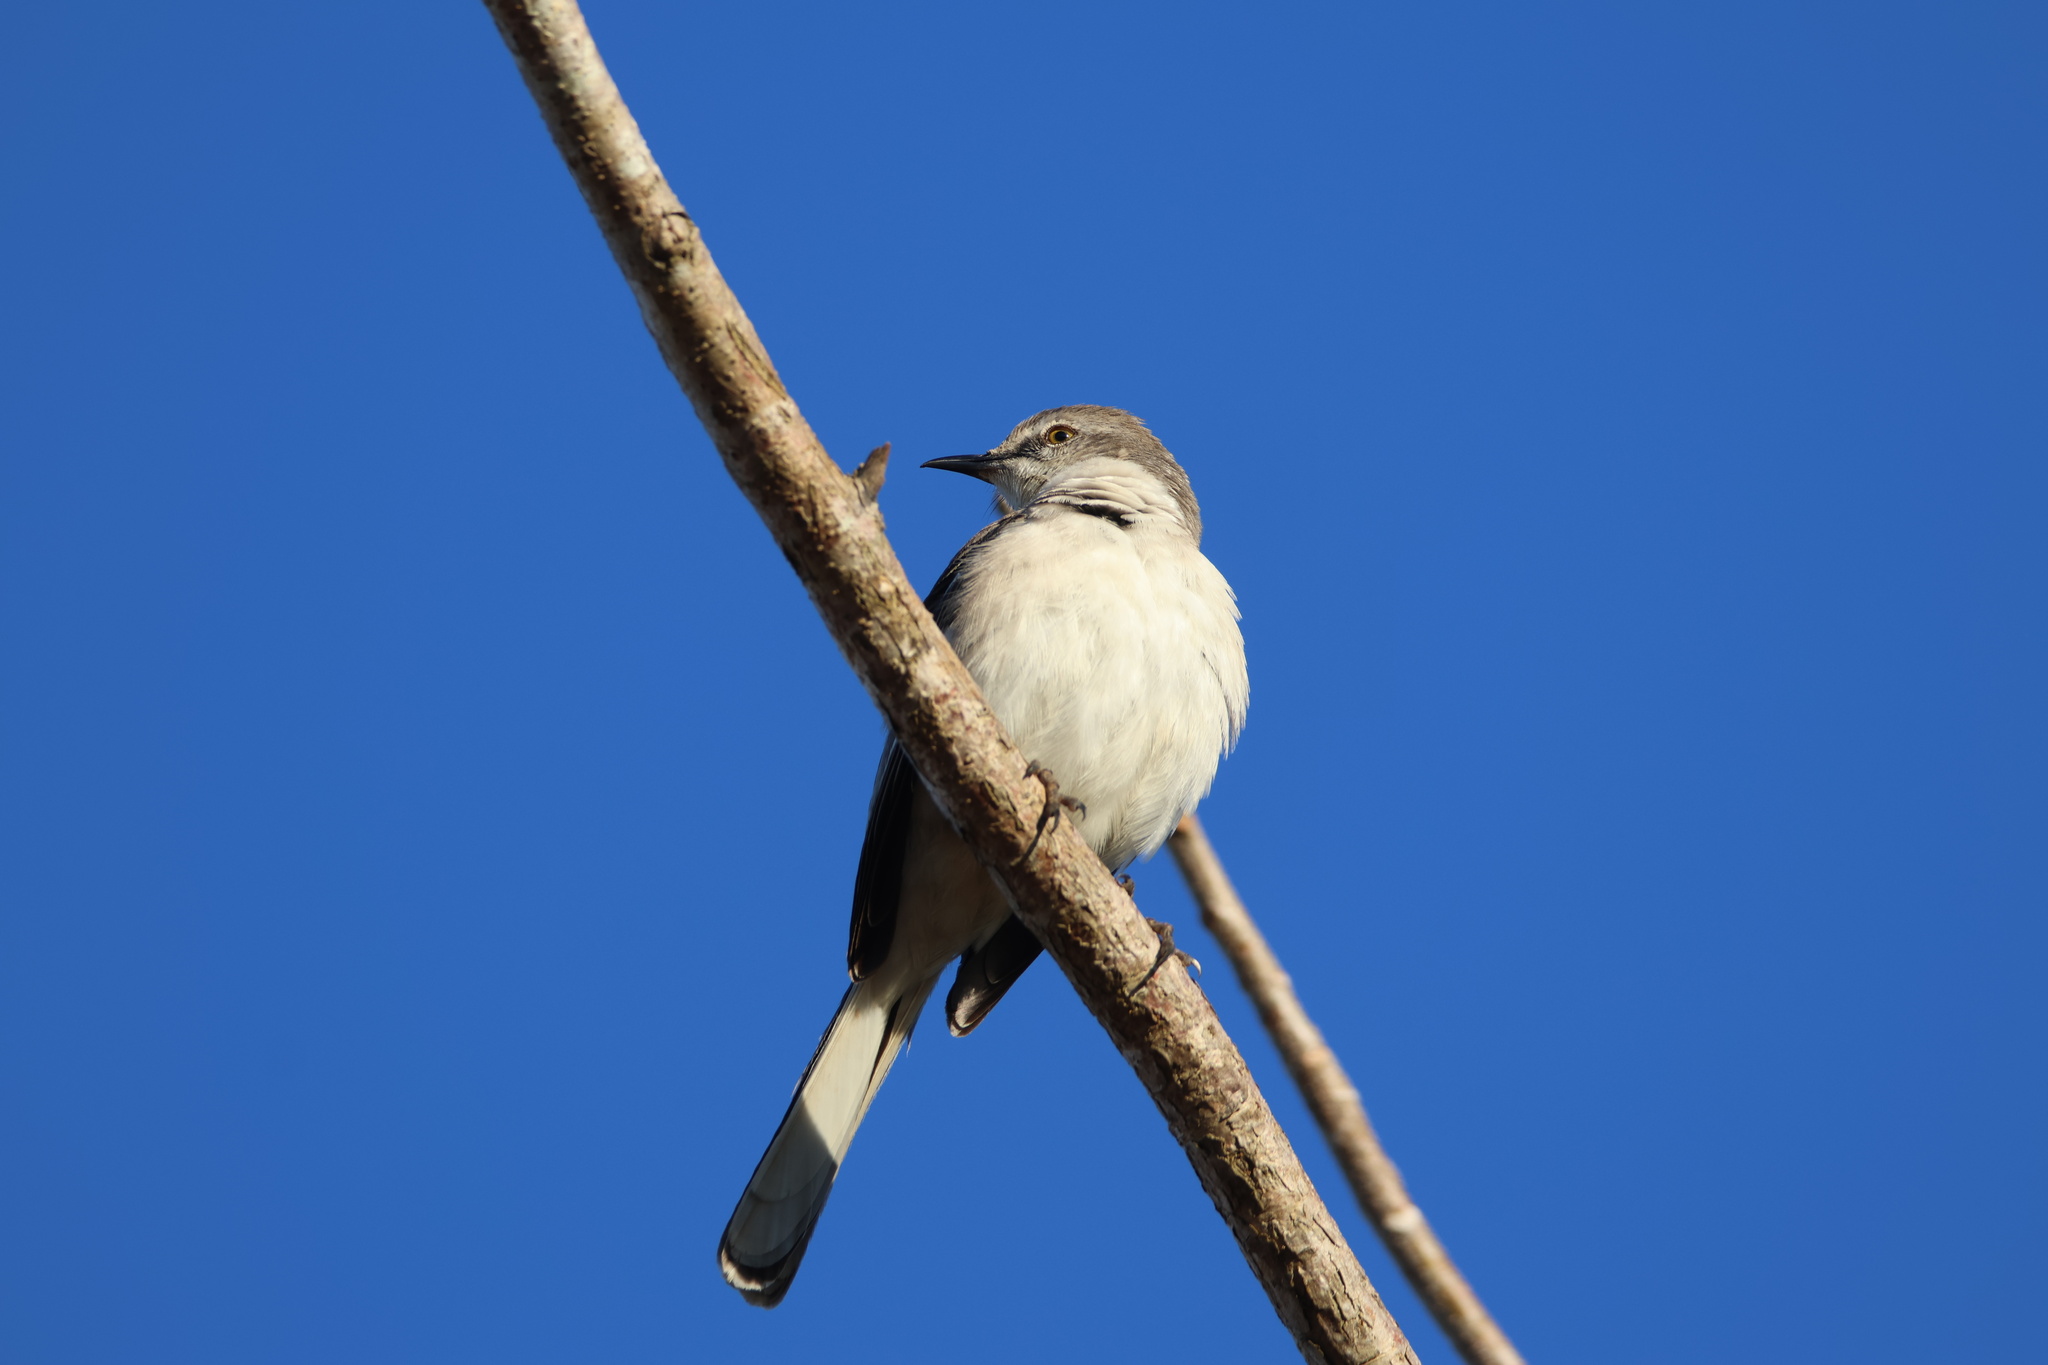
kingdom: Animalia
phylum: Chordata
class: Aves
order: Passeriformes
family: Mimidae
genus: Mimus
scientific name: Mimus polyglottos
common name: Northern mockingbird
